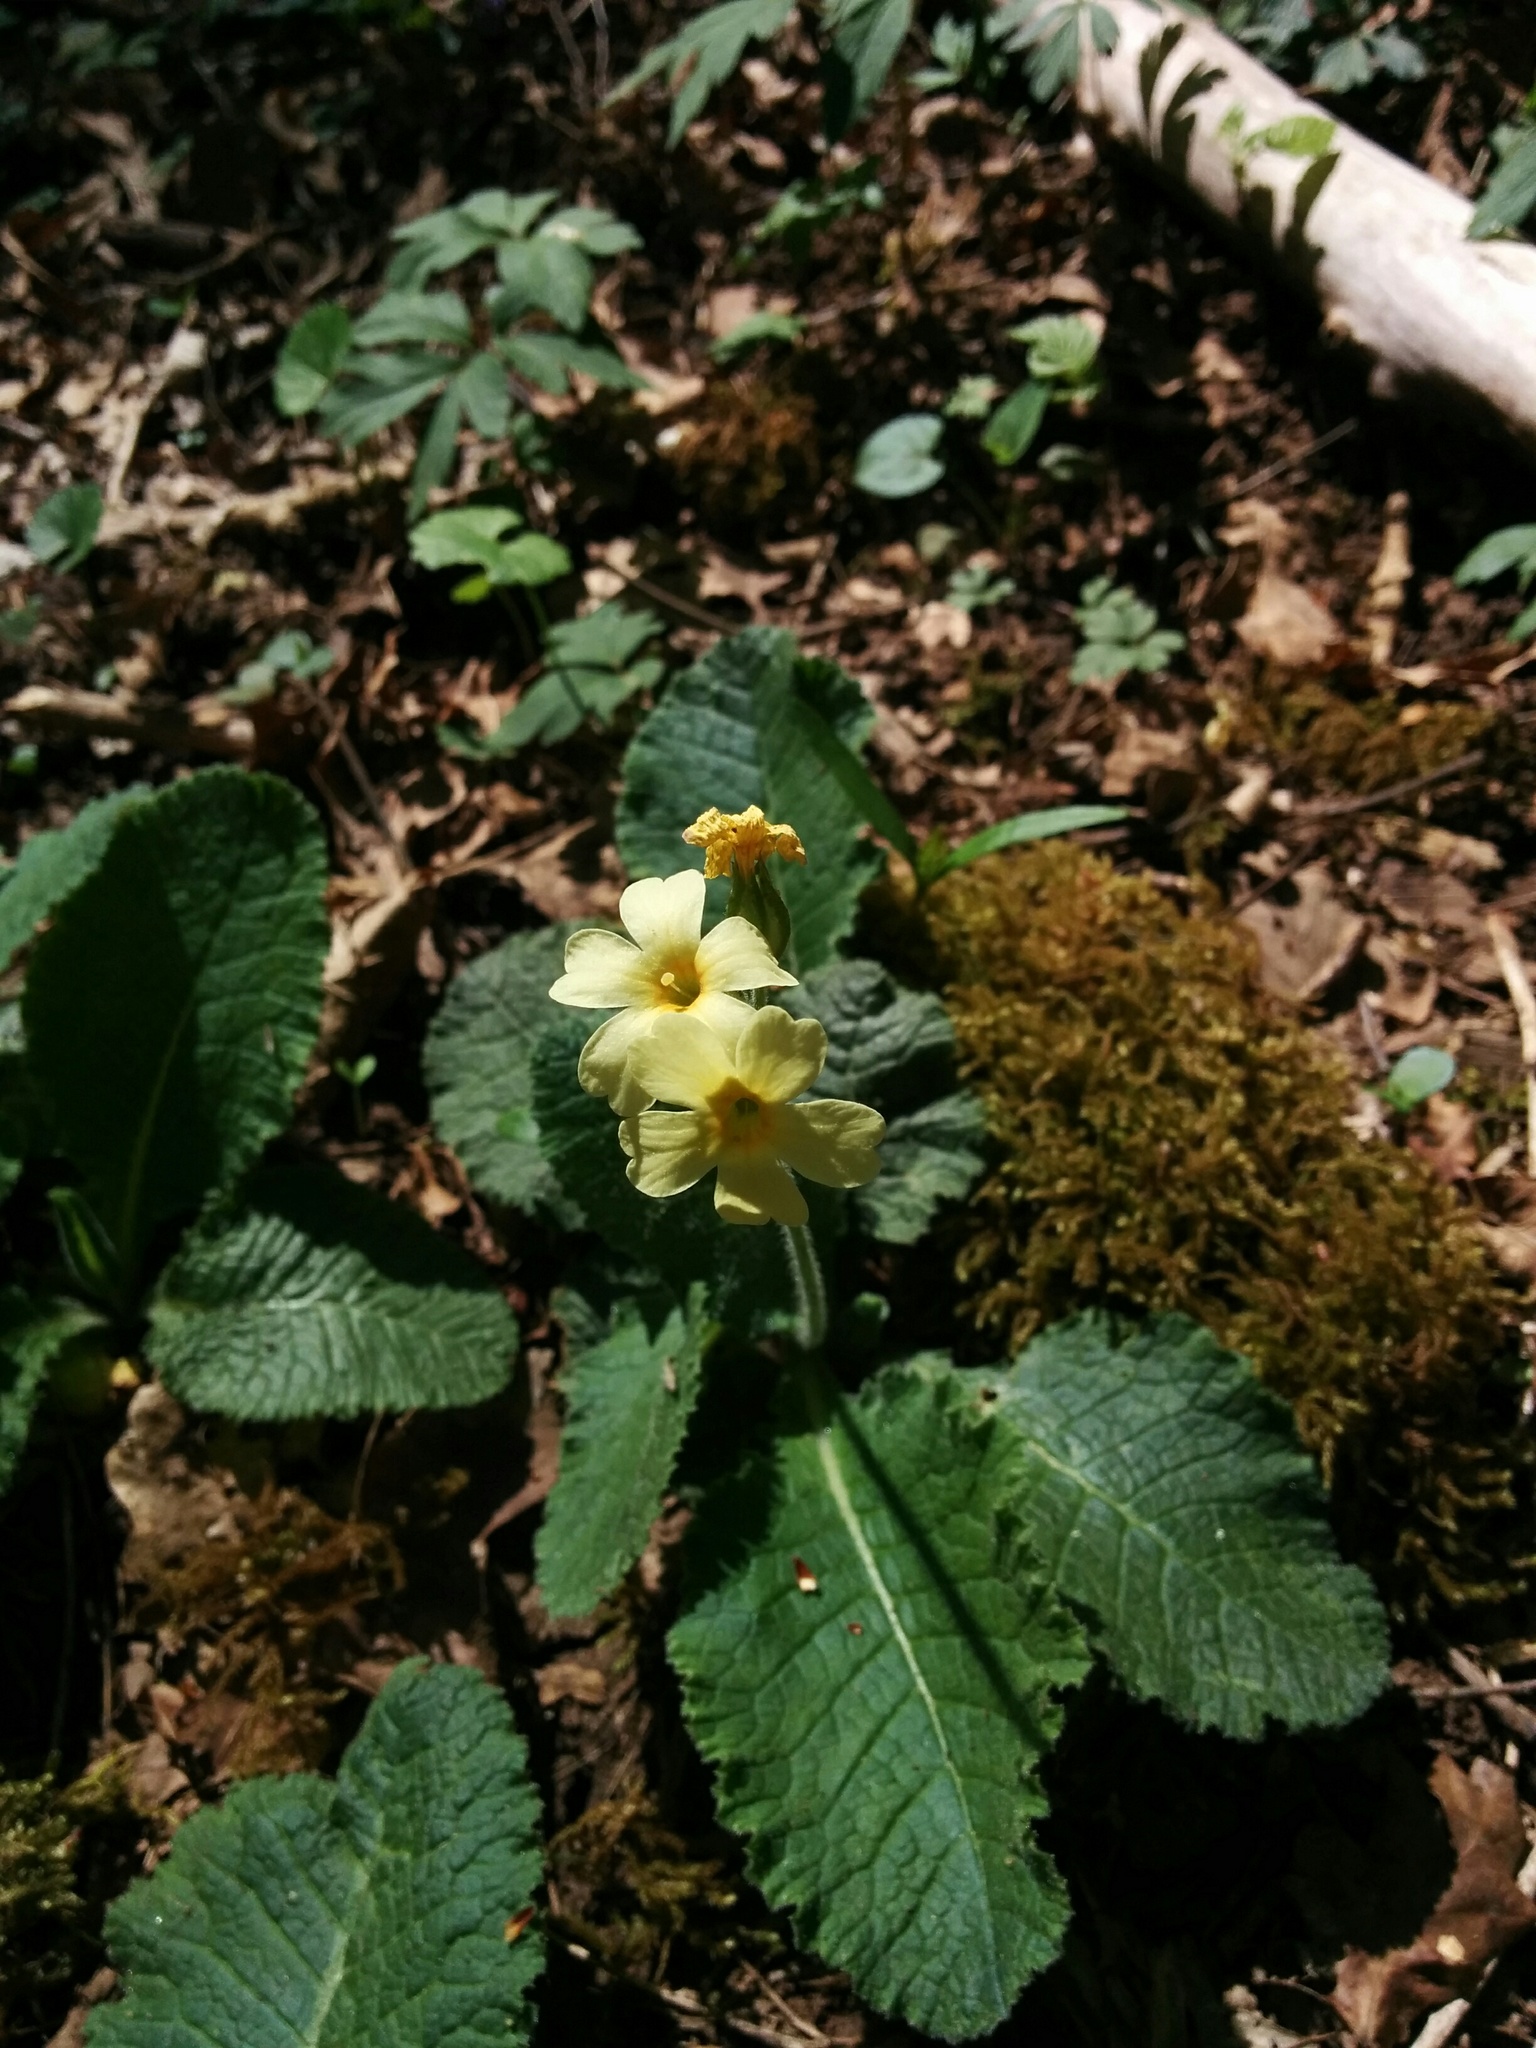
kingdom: Plantae
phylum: Tracheophyta
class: Magnoliopsida
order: Ericales
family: Primulaceae
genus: Primula
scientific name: Primula elatior
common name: Oxlip
